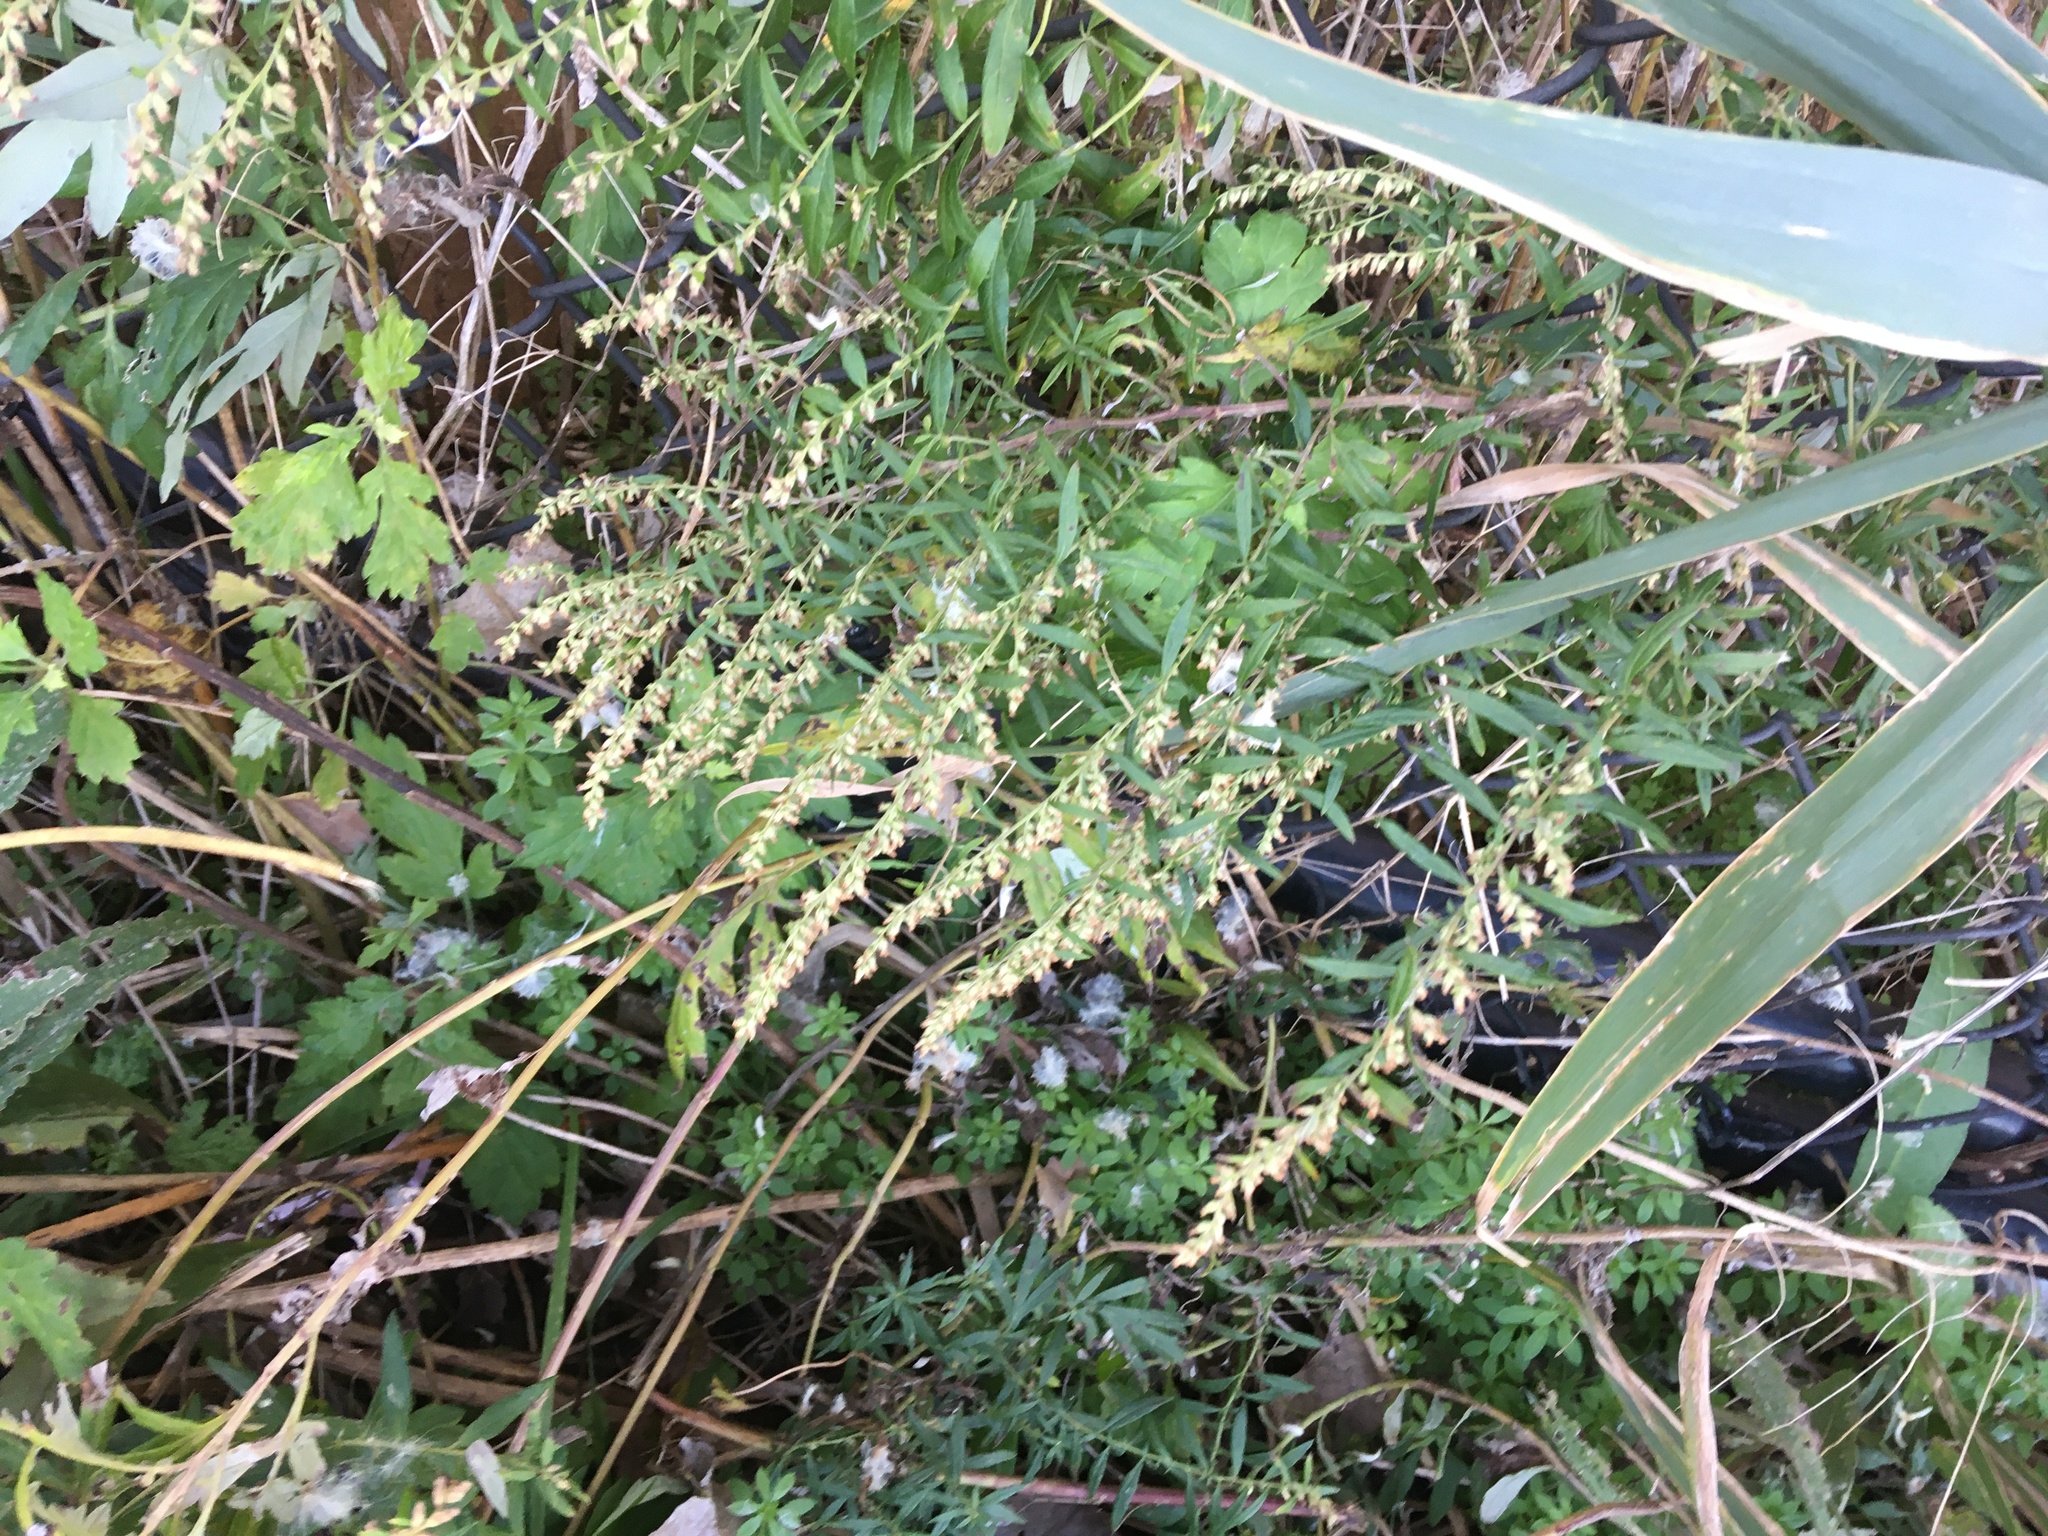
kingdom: Plantae
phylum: Tracheophyta
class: Magnoliopsida
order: Asterales
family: Asteraceae
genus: Artemisia
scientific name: Artemisia vulgaris
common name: Mugwort
